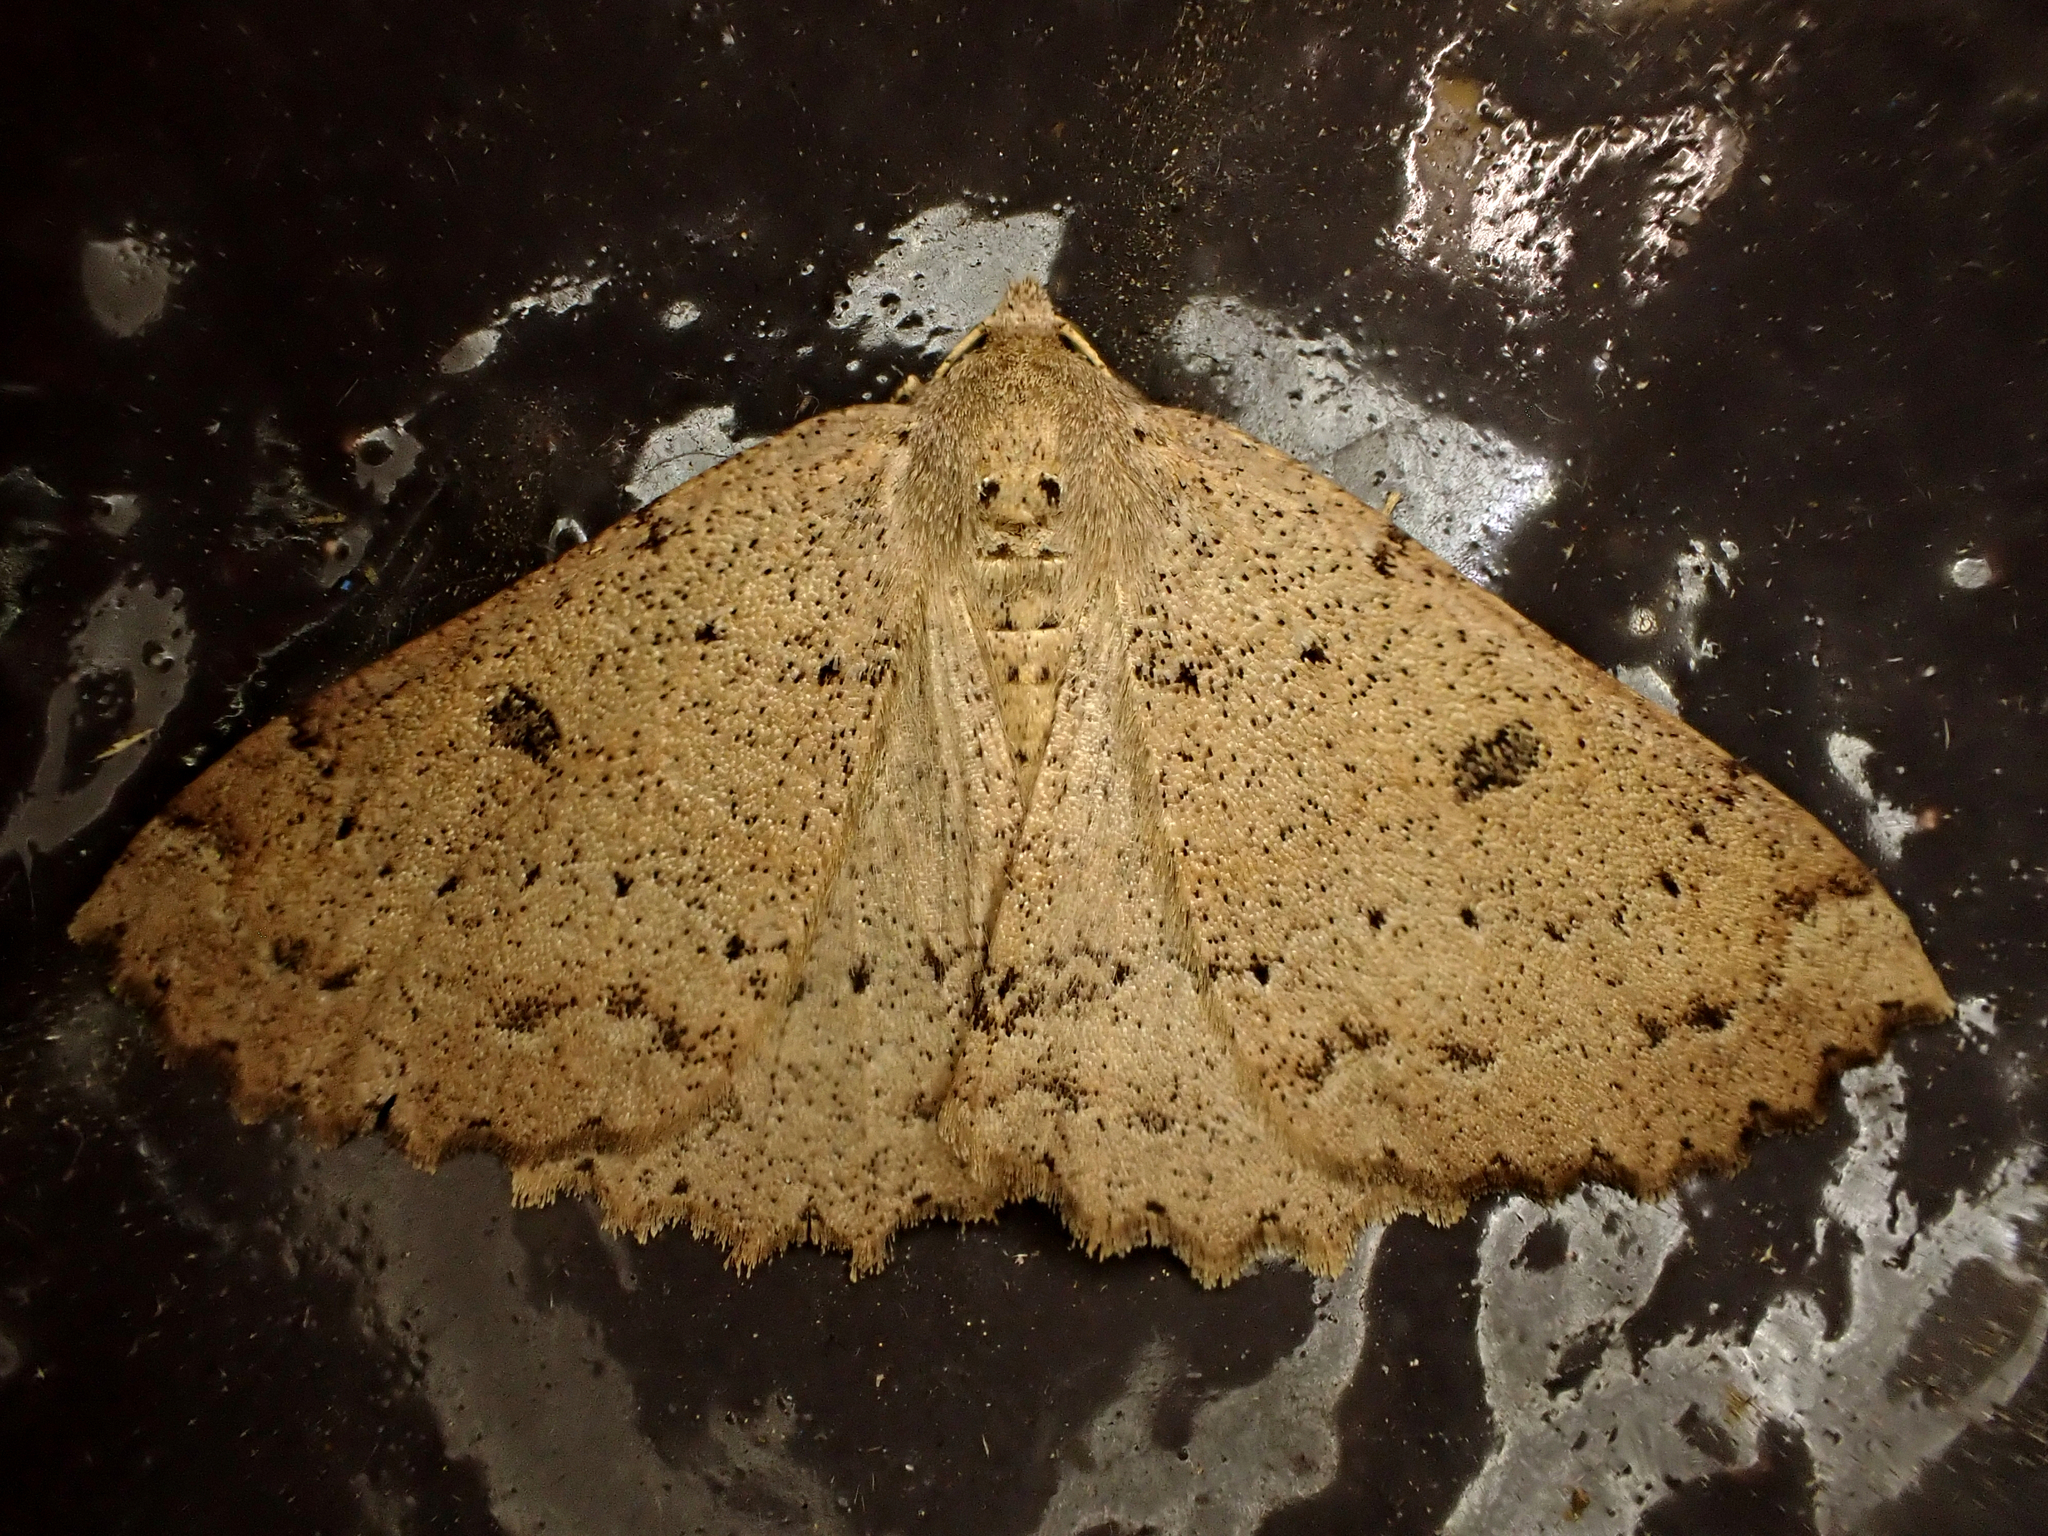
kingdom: Animalia
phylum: Arthropoda
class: Insecta
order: Lepidoptera
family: Geometridae
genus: Cleora
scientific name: Cleora scriptaria
